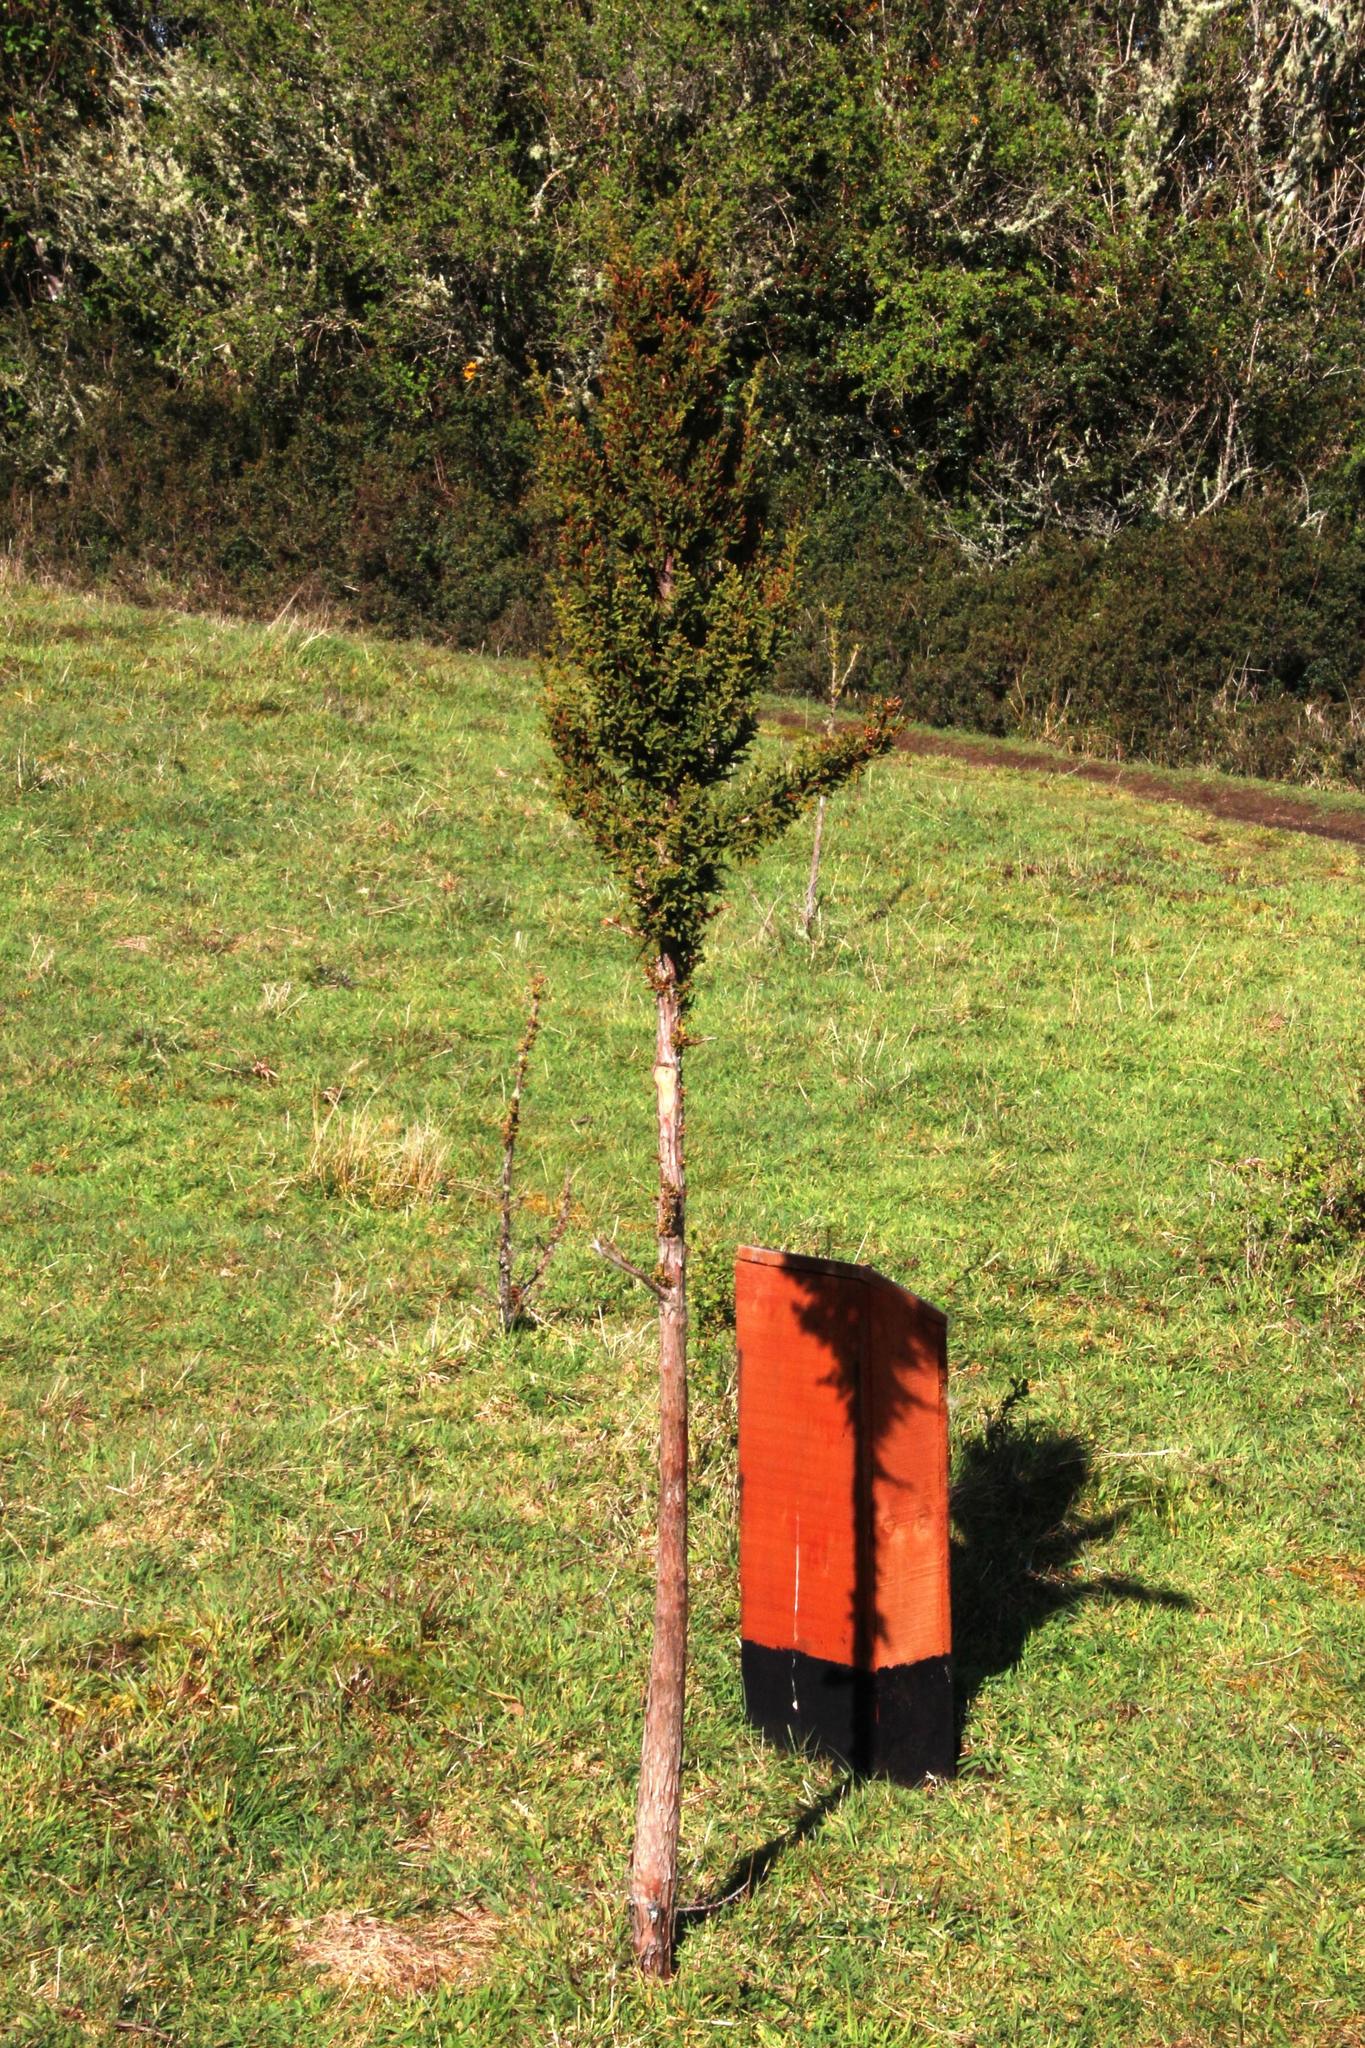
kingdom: Plantae
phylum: Tracheophyta
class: Pinopsida
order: Pinales
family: Cupressaceae
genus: Pilgerodendron
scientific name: Pilgerodendron uviferum
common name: Guaitecas cypress
